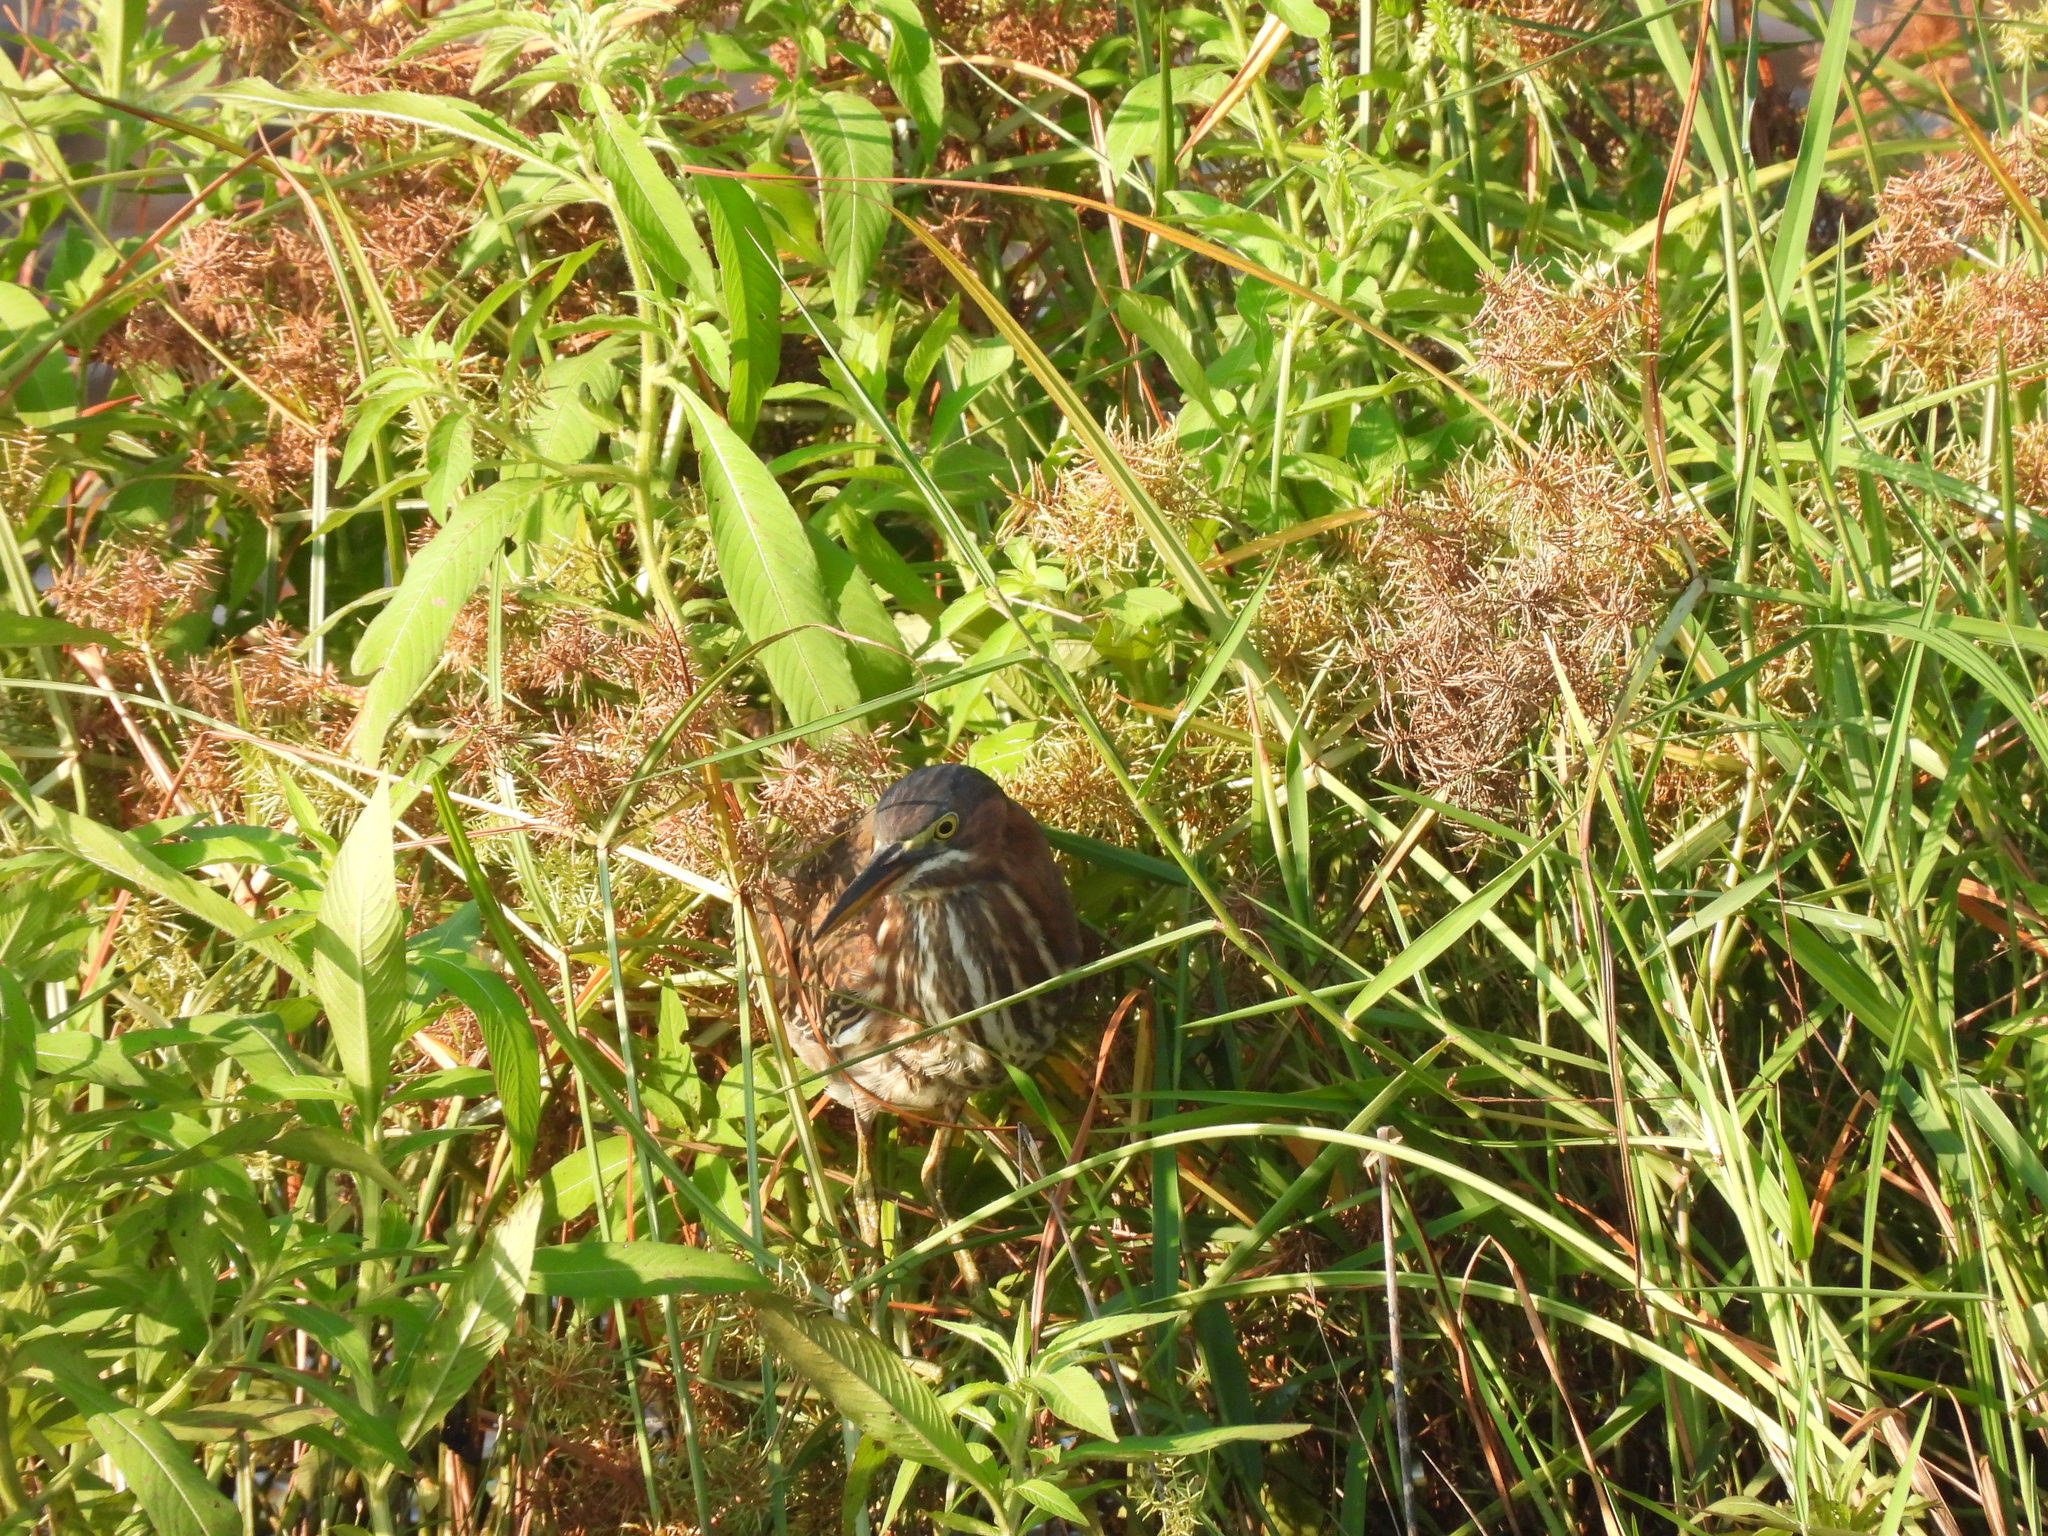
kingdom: Animalia
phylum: Chordata
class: Aves
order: Pelecaniformes
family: Ardeidae
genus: Butorides
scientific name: Butorides virescens
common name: Green heron
